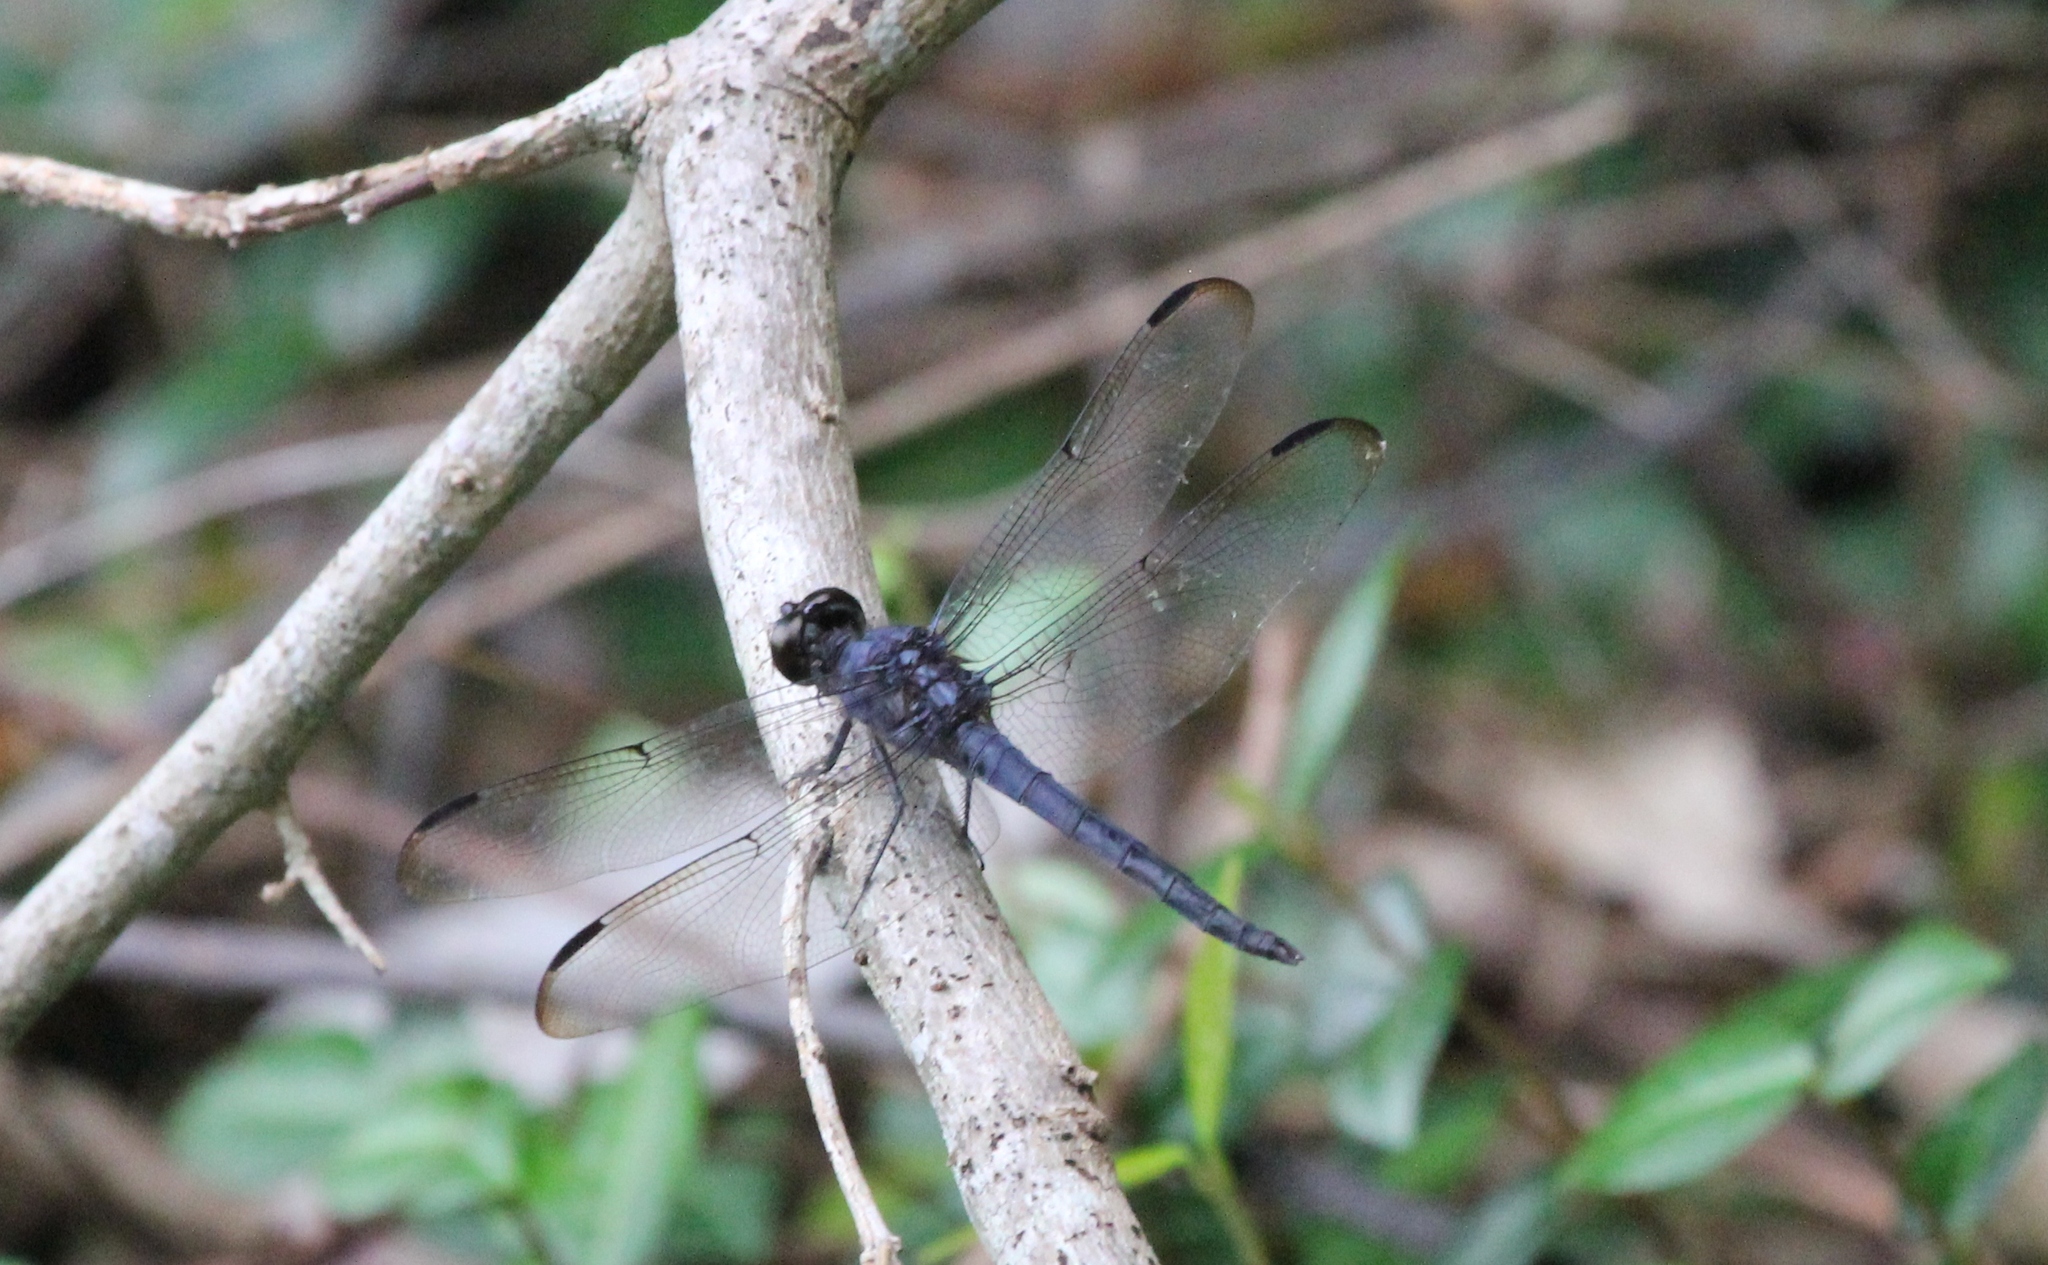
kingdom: Animalia
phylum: Arthropoda
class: Insecta
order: Odonata
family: Libellulidae
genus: Libellula
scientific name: Libellula incesta
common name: Slaty skimmer
